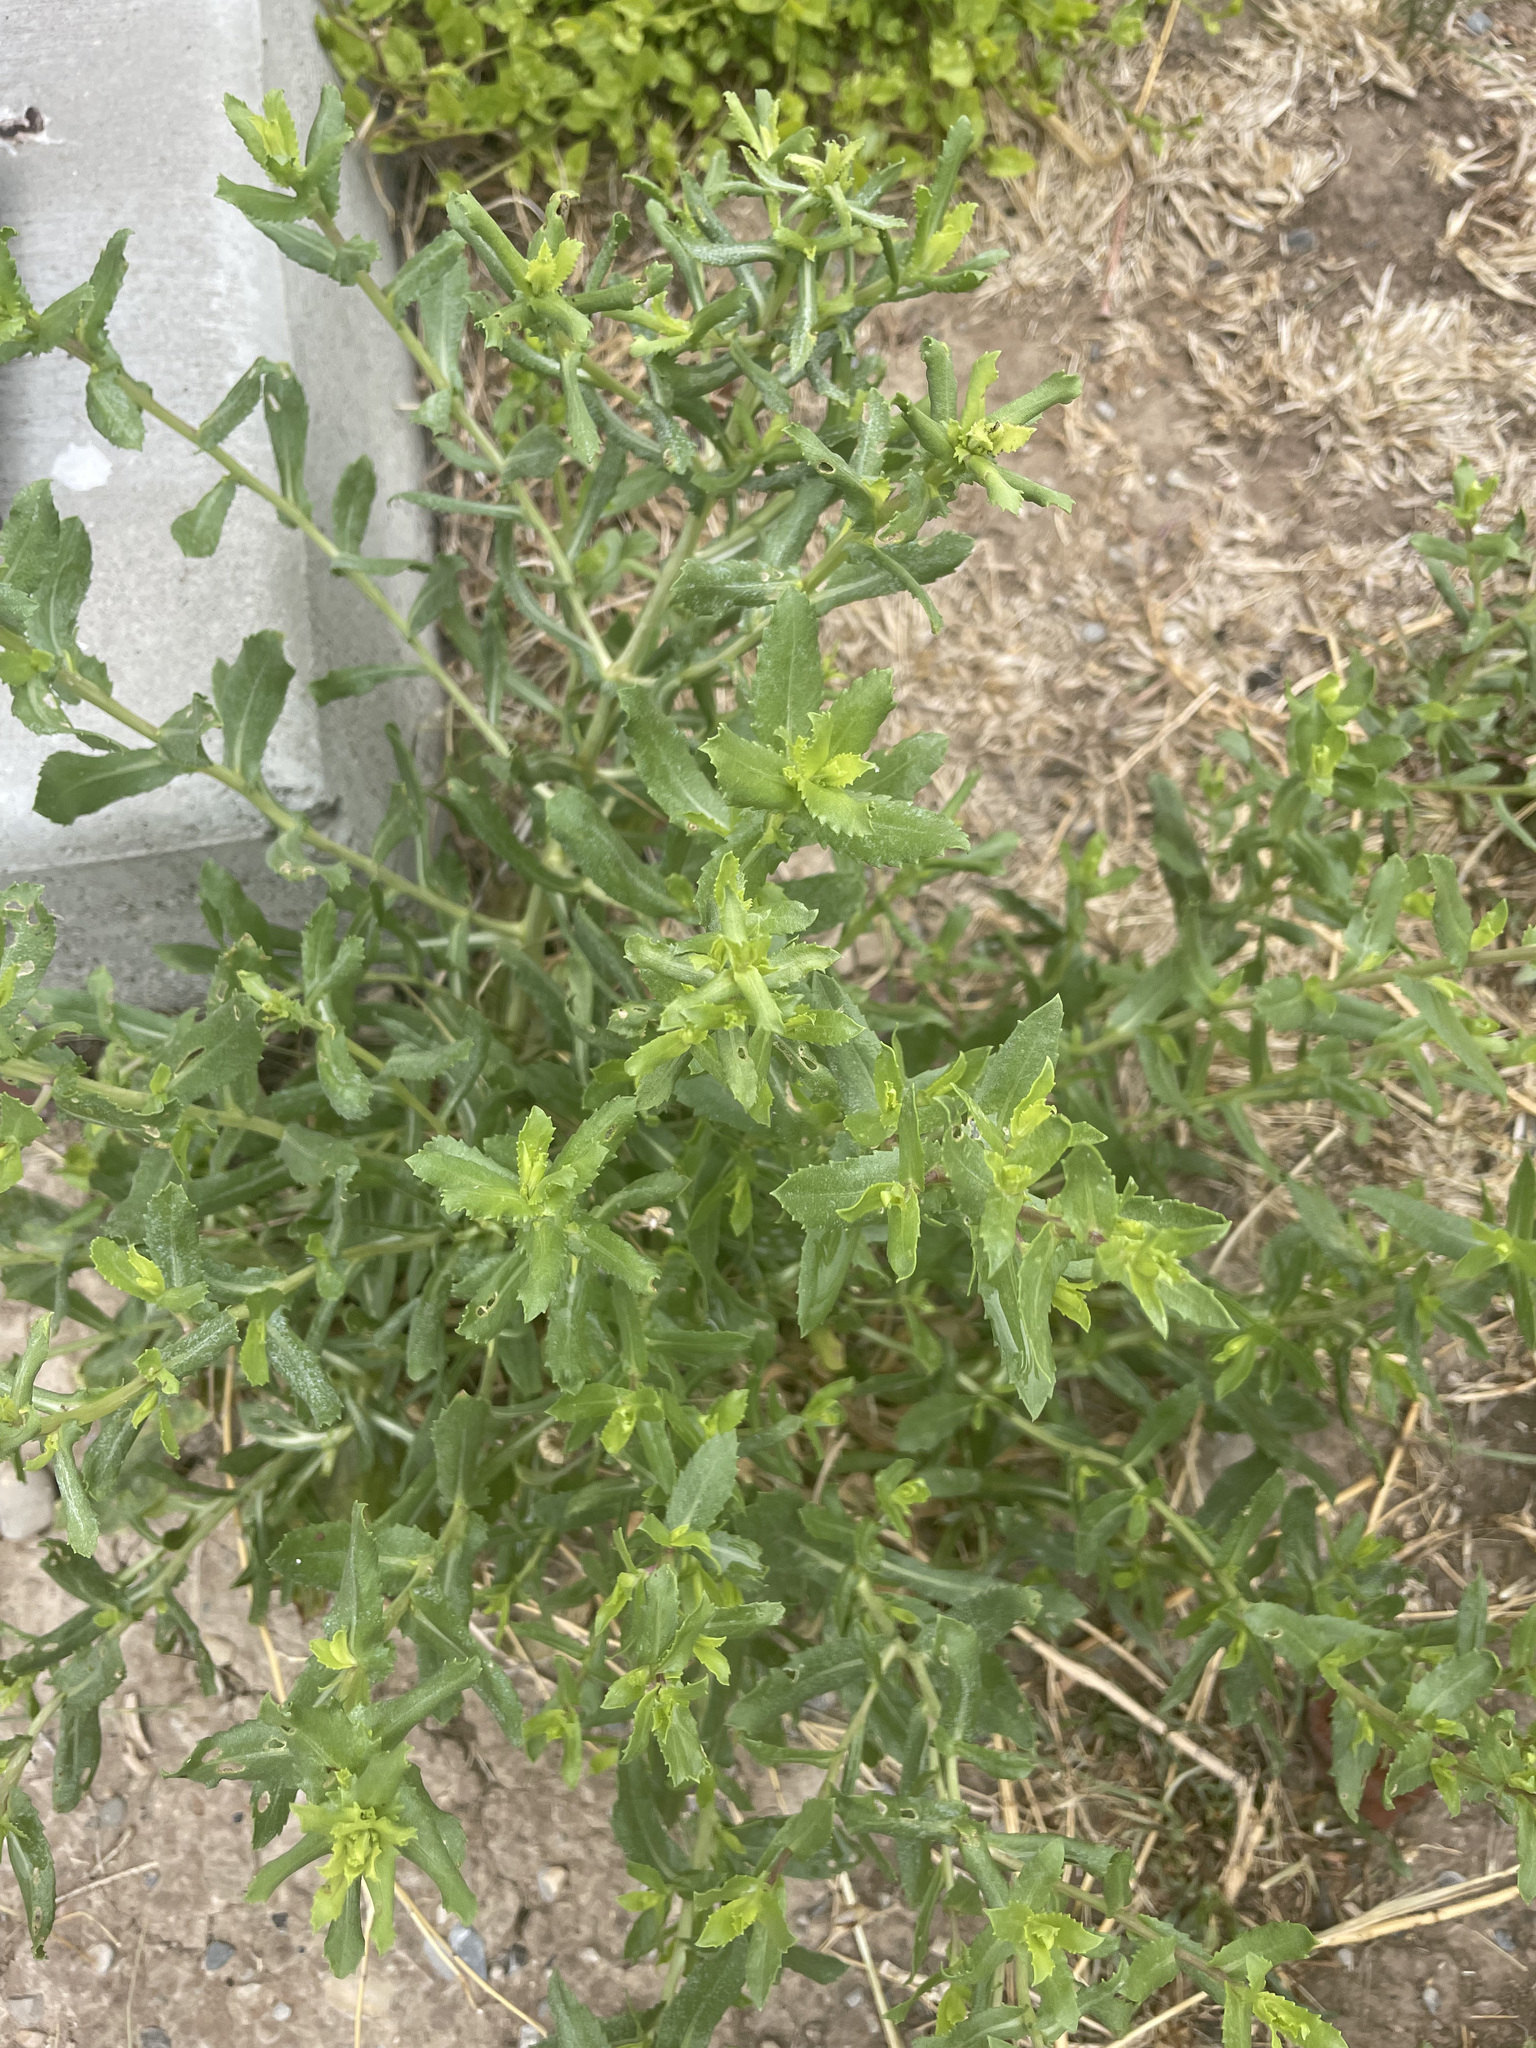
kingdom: Plantae
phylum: Tracheophyta
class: Magnoliopsida
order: Asterales
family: Asteraceae
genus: Grindelia
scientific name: Grindelia squarrosa
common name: Curly-cup gumweed
